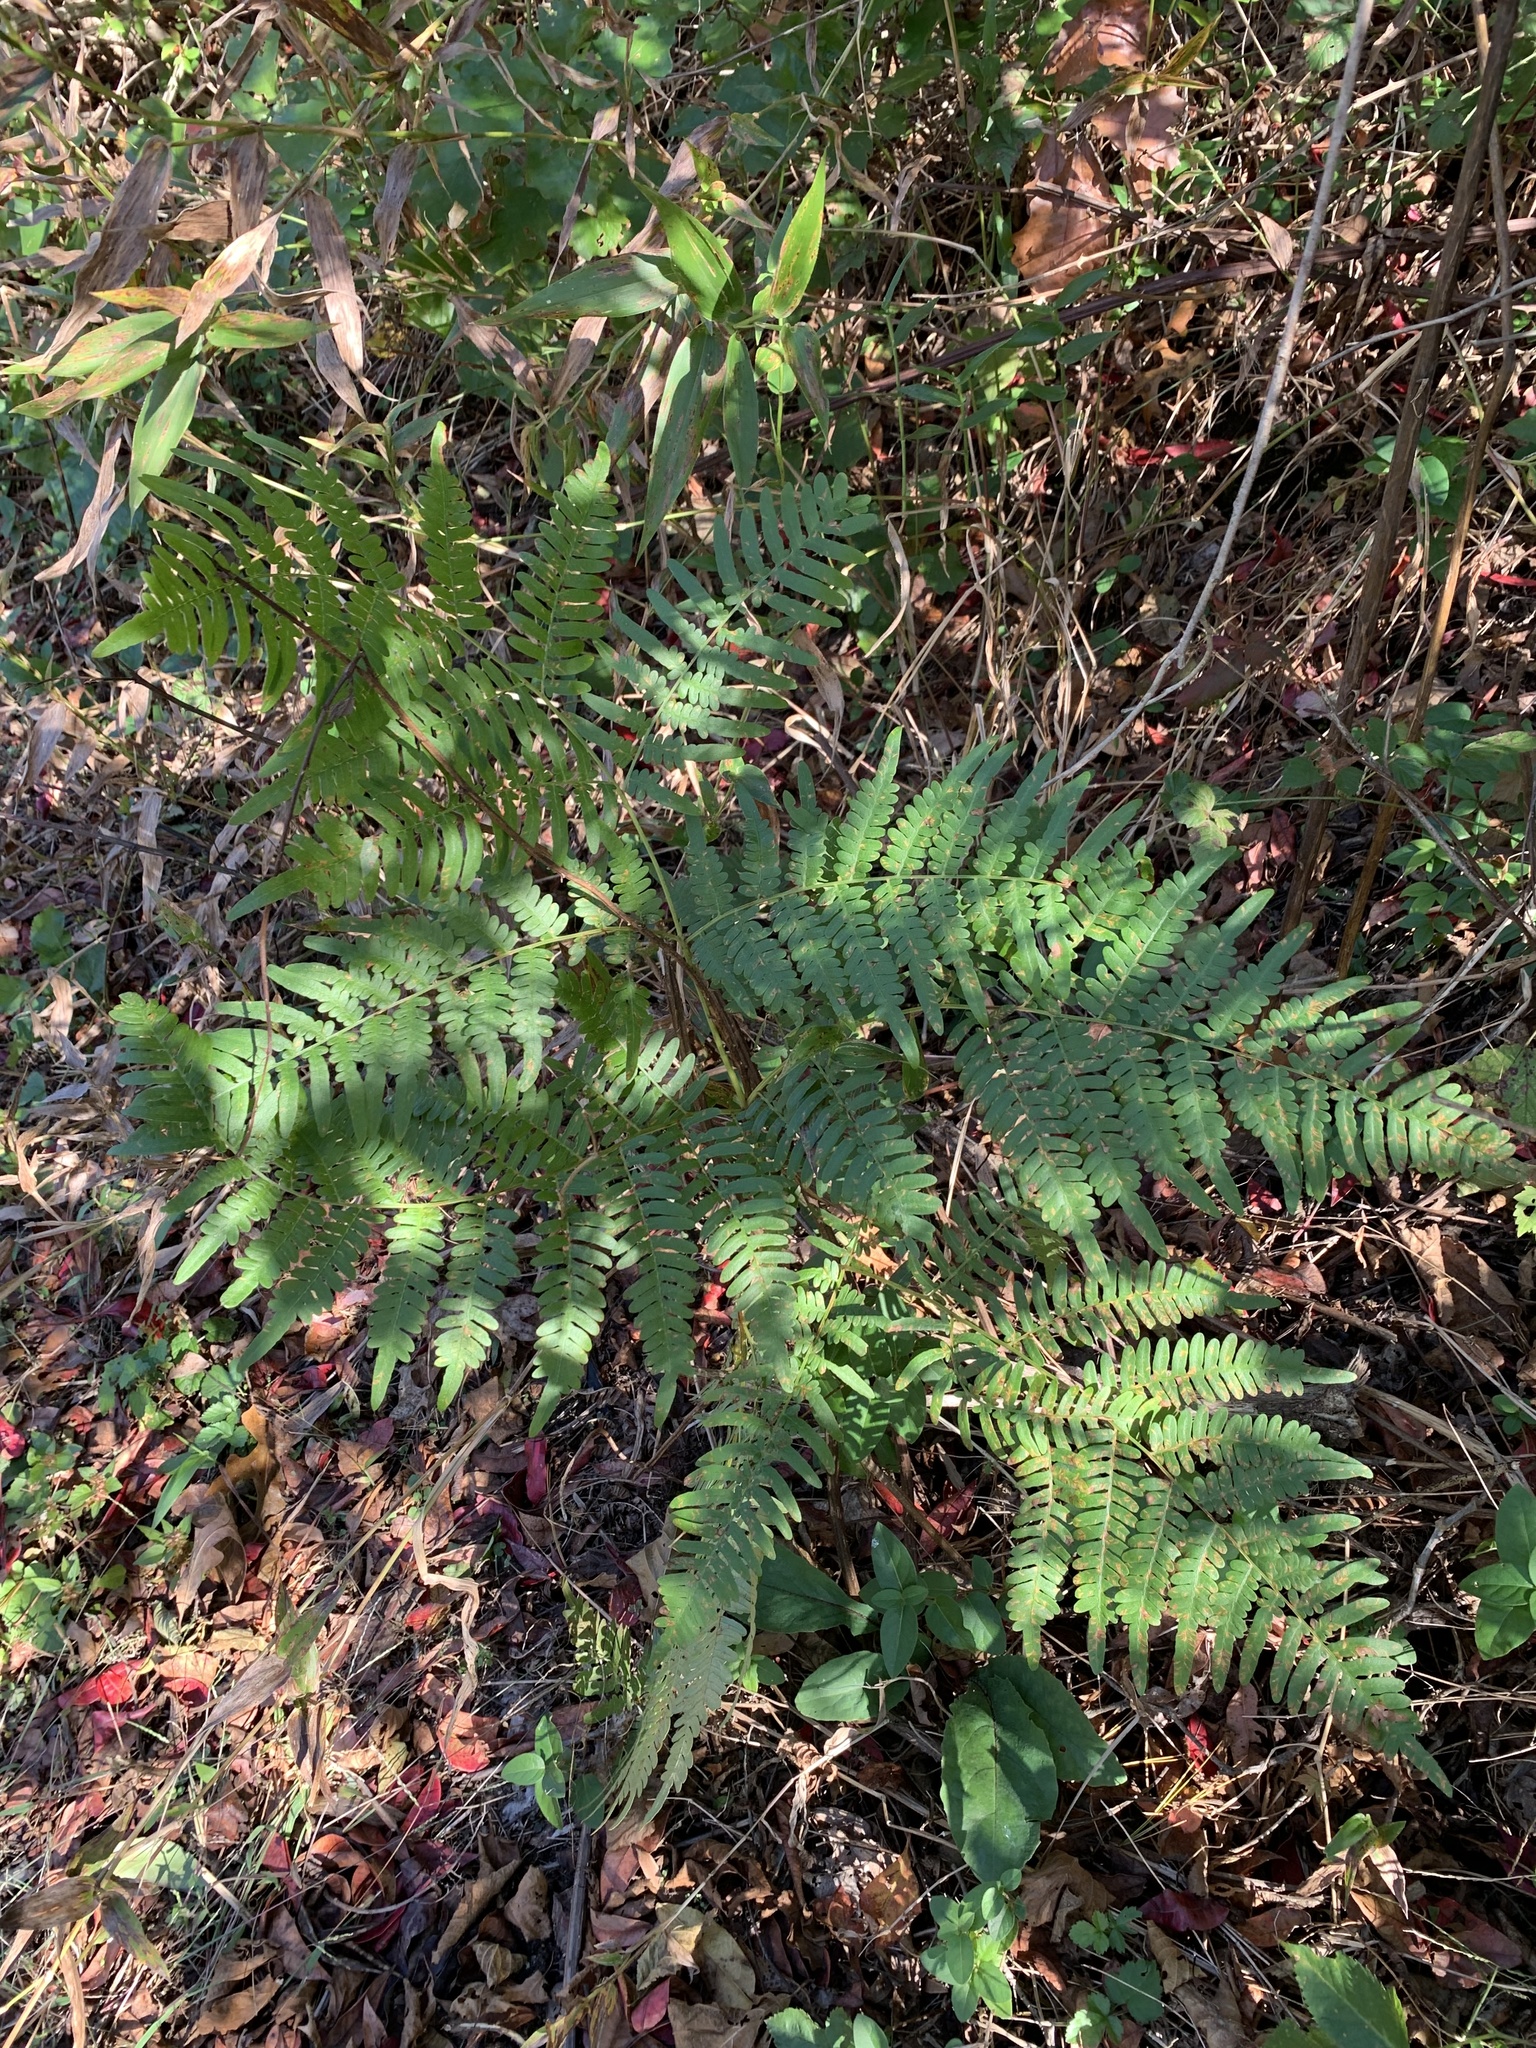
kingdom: Plantae
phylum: Tracheophyta
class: Polypodiopsida
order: Polypodiales
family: Dennstaedtiaceae
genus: Pteridium
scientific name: Pteridium aquilinum
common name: Bracken
